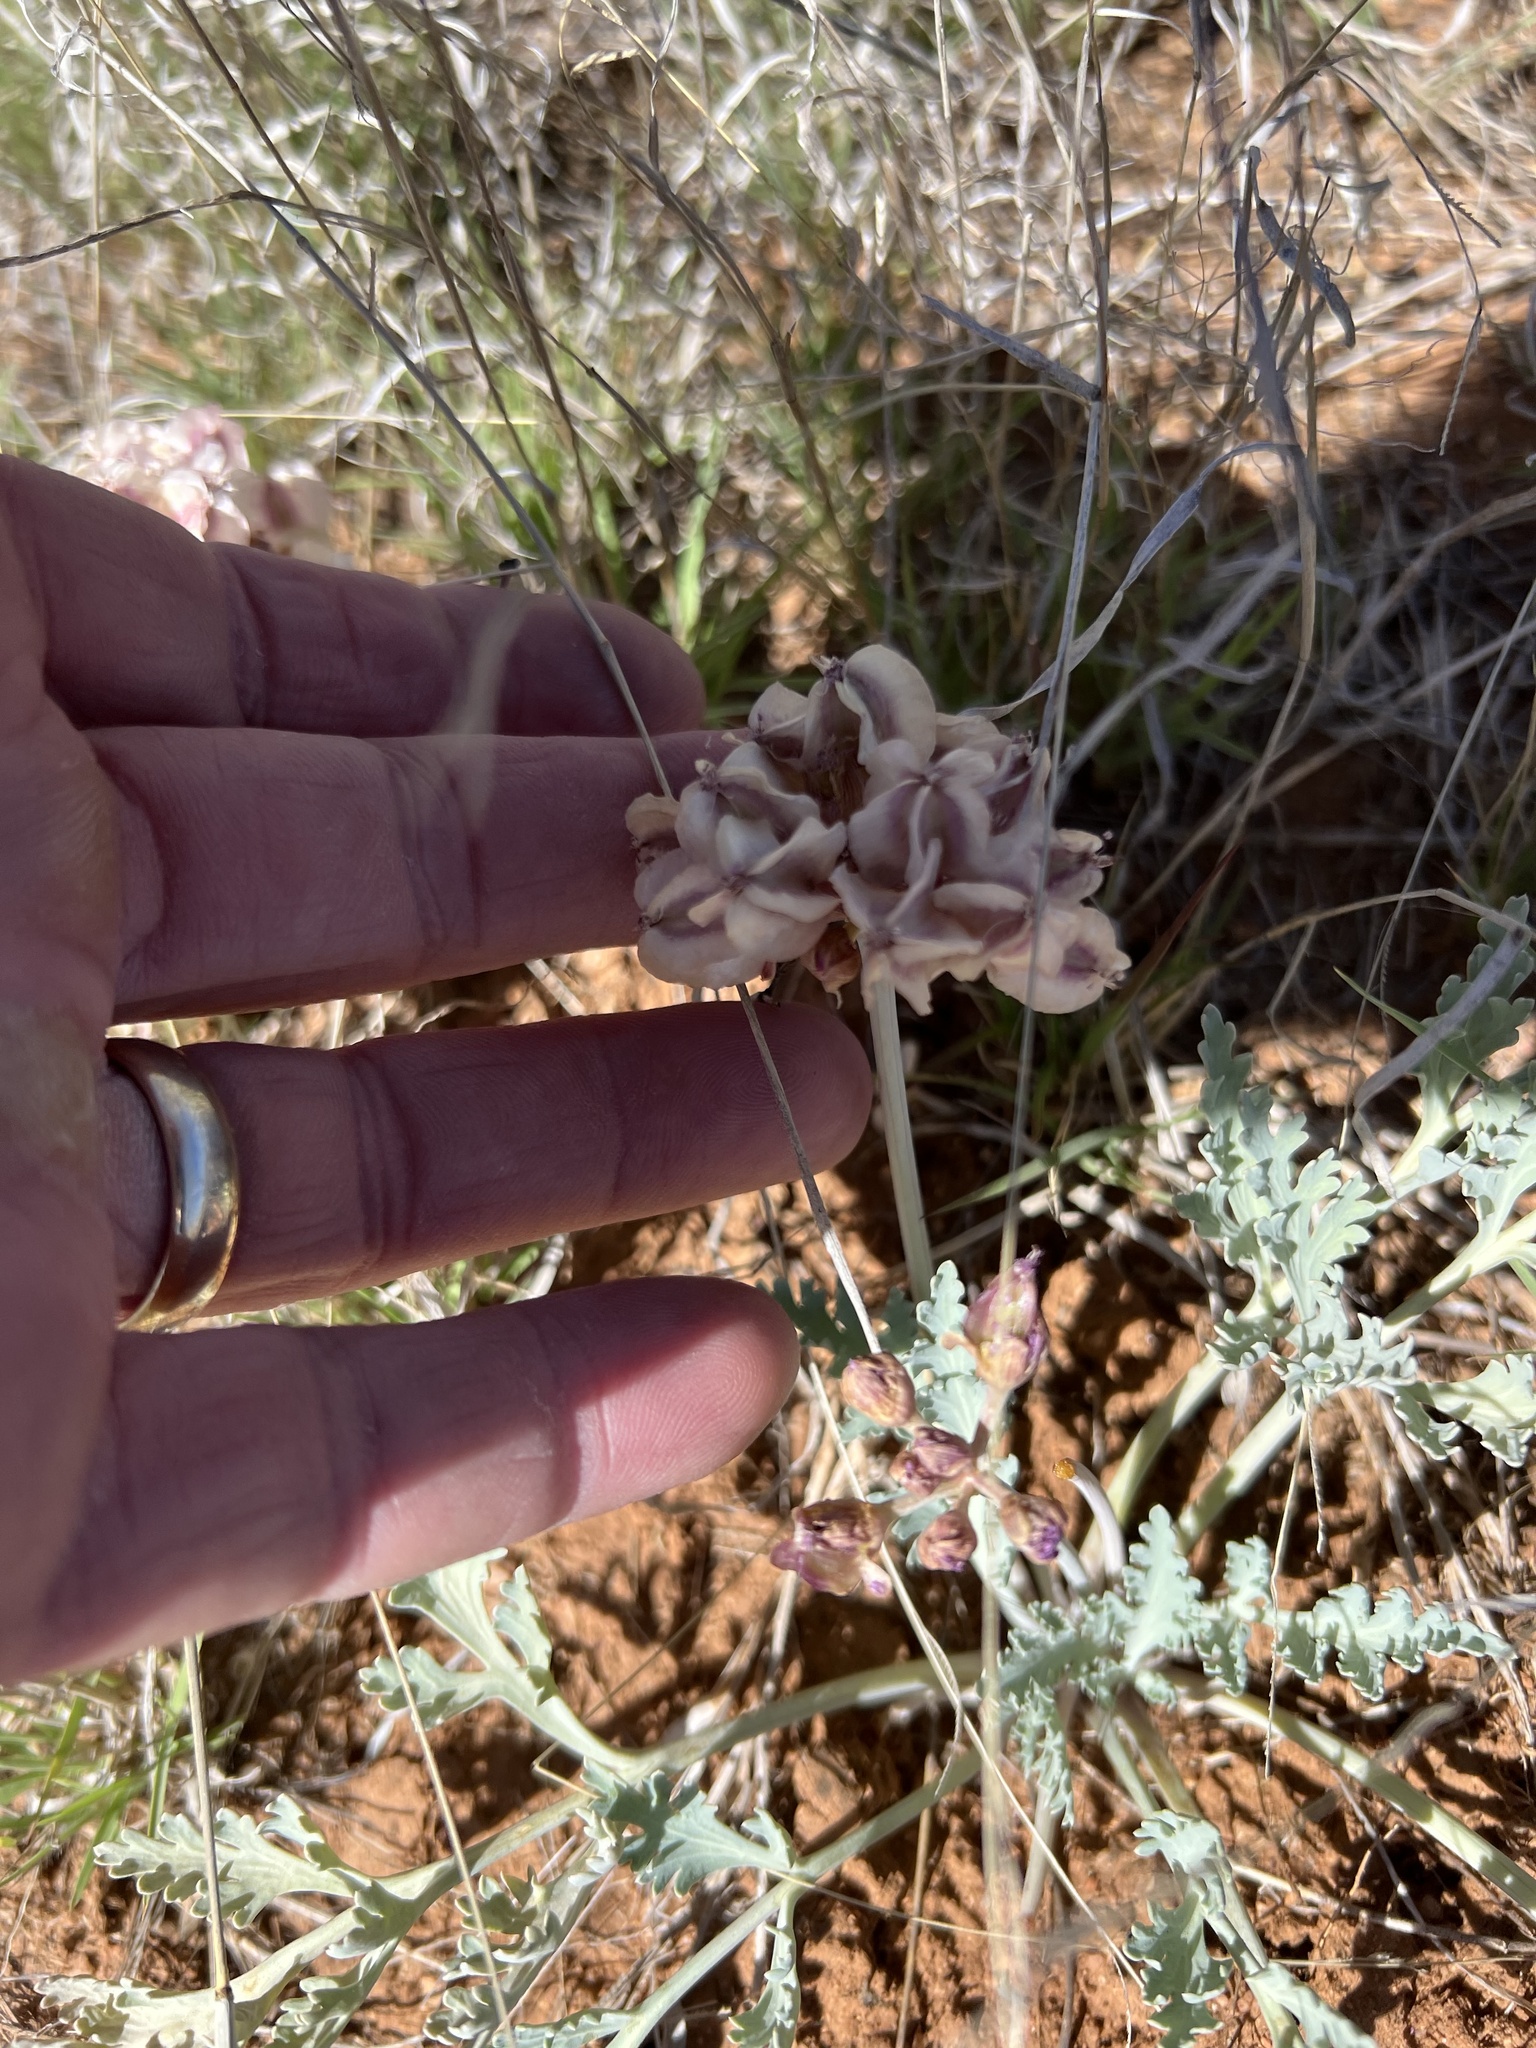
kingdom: Plantae
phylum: Tracheophyta
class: Magnoliopsida
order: Apiales
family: Apiaceae
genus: Vesper
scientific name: Vesper multinervatus
